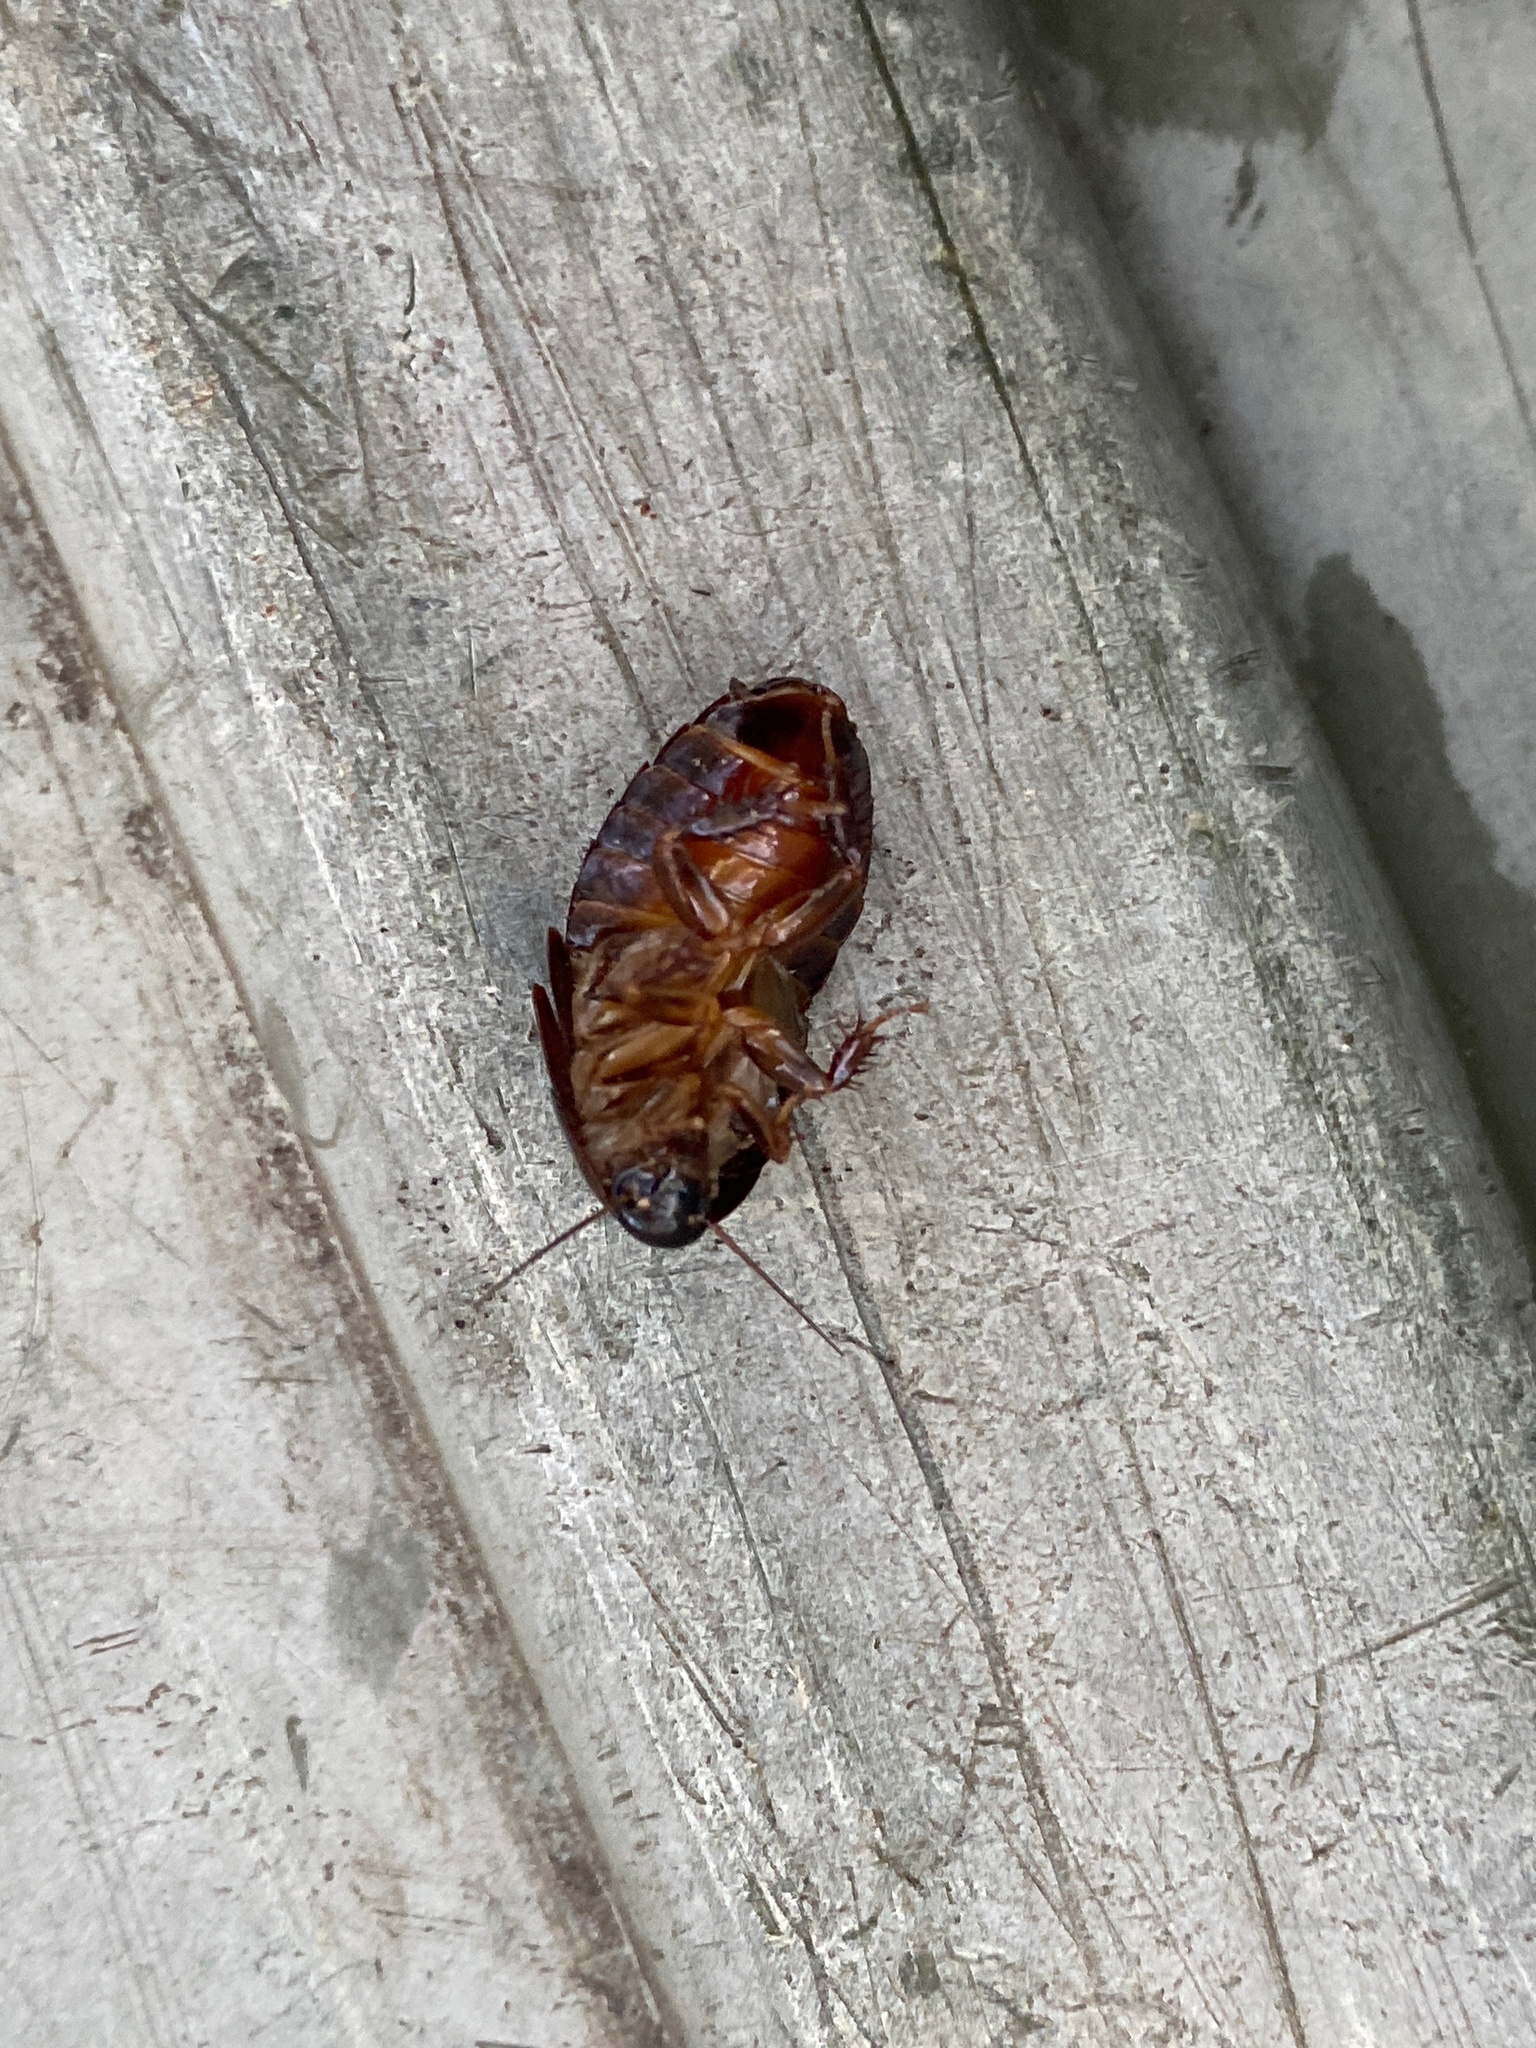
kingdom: Animalia
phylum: Arthropoda
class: Insecta
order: Blattodea
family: Blaberidae
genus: Pycnoscelus
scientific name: Pycnoscelus surinamensis
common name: Surinam cockroach
